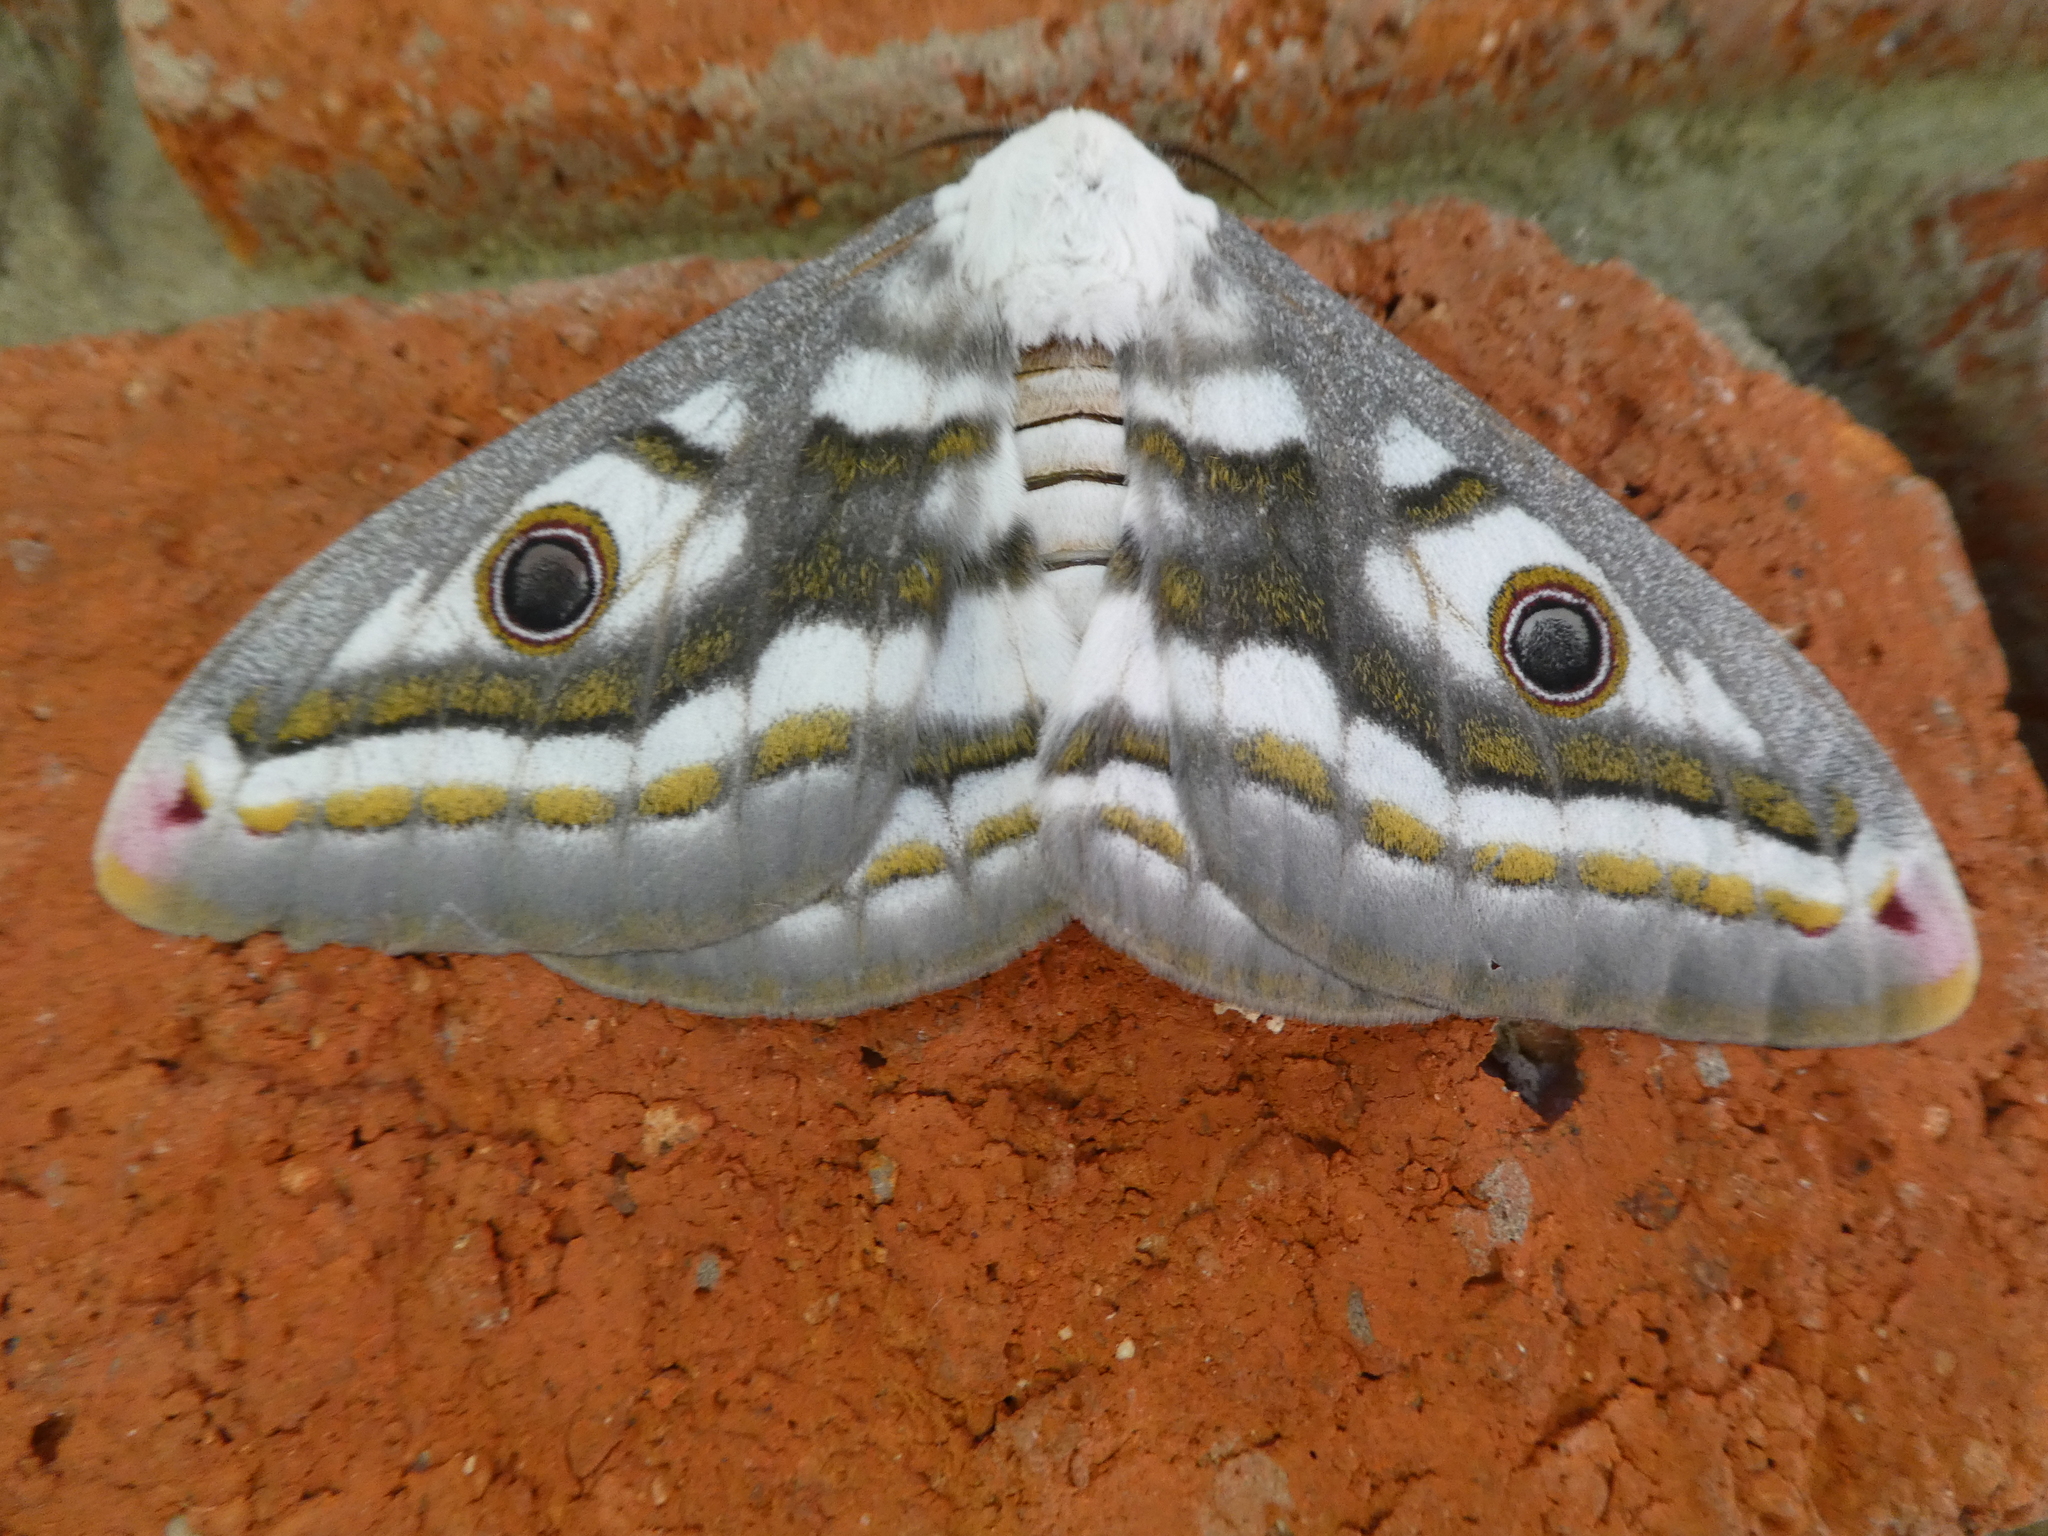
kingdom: Animalia
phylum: Arthropoda
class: Insecta
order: Lepidoptera
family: Saturniidae
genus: Heniocha
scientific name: Heniocha dyops
